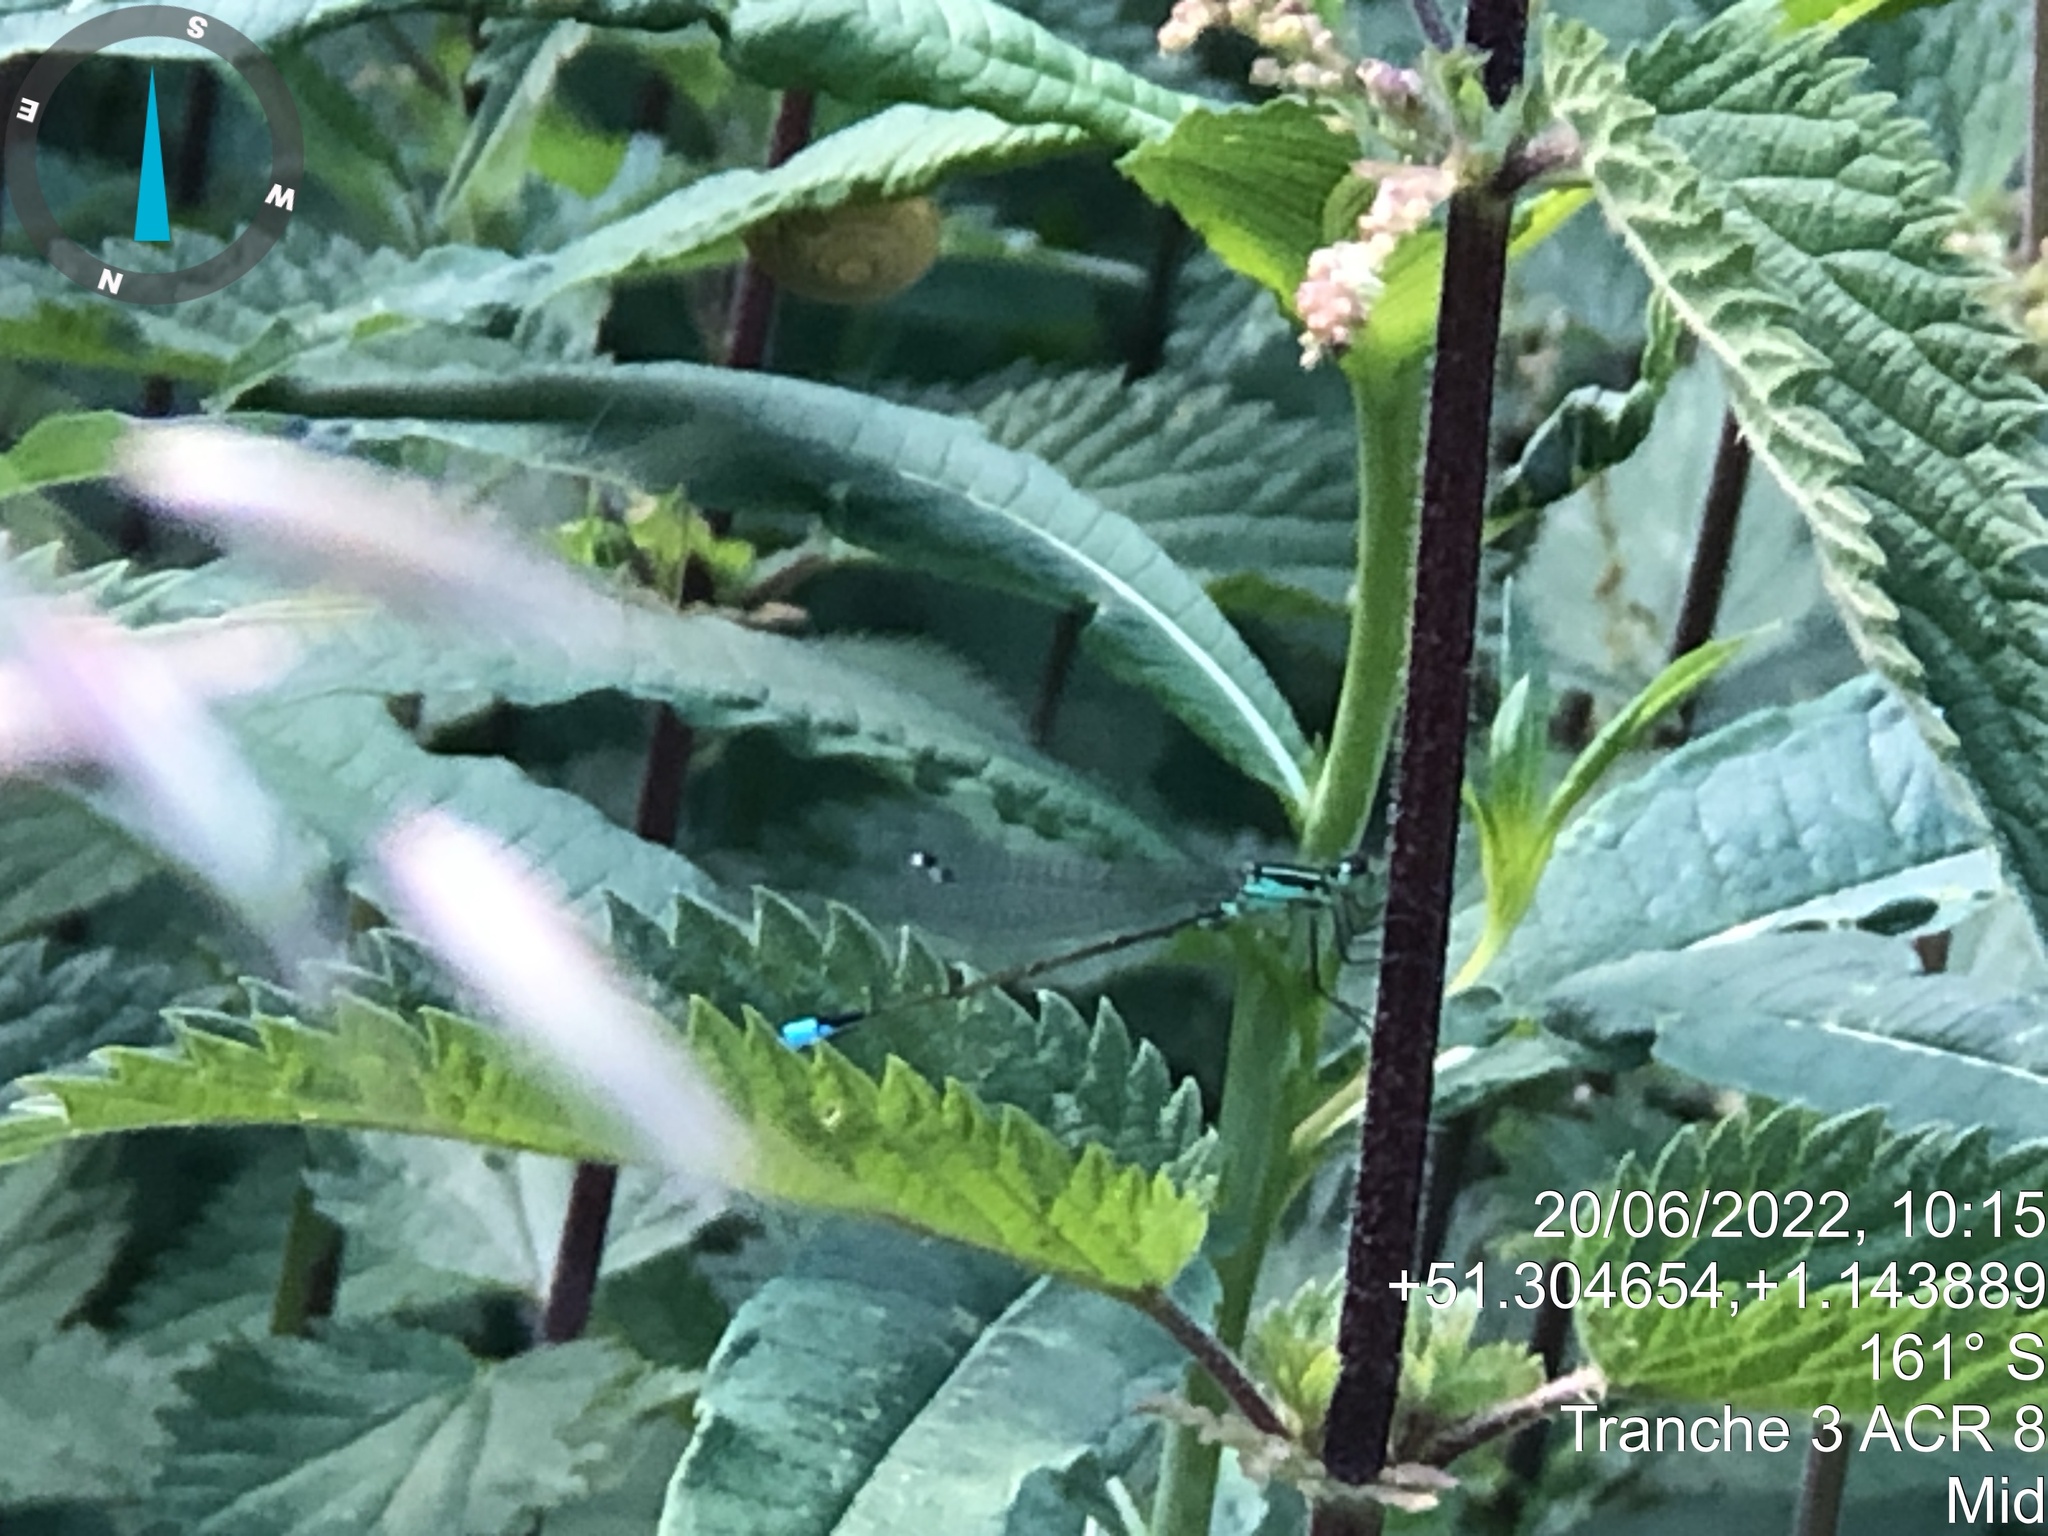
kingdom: Animalia
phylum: Arthropoda
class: Insecta
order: Odonata
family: Coenagrionidae
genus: Ischnura
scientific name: Ischnura elegans
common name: Blue-tailed damselfly
